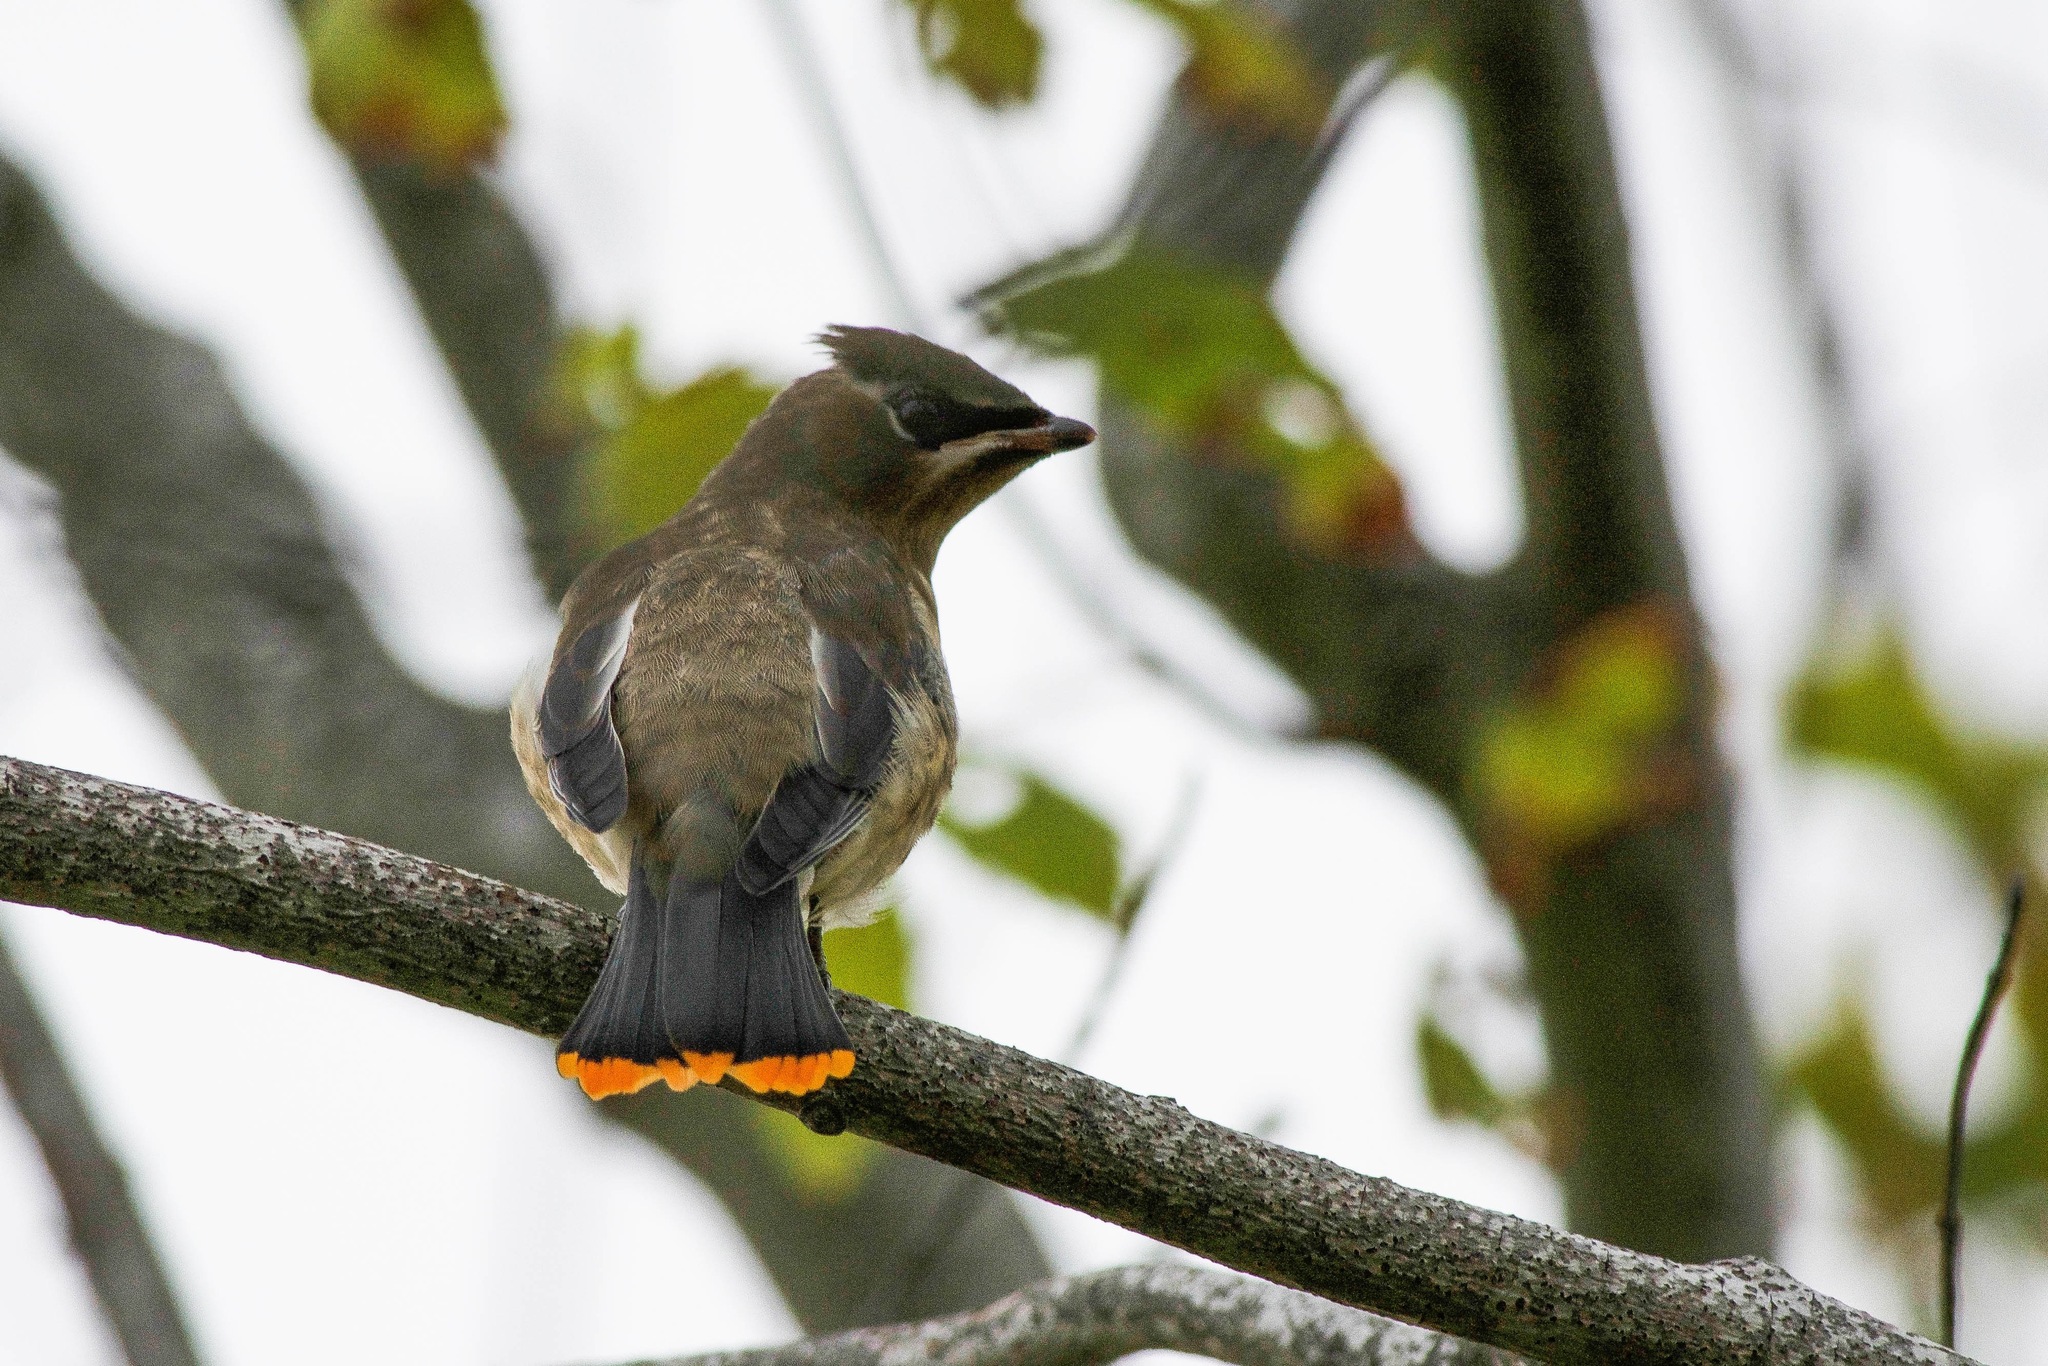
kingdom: Animalia
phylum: Chordata
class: Aves
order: Passeriformes
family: Bombycillidae
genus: Bombycilla
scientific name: Bombycilla cedrorum
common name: Cedar waxwing
